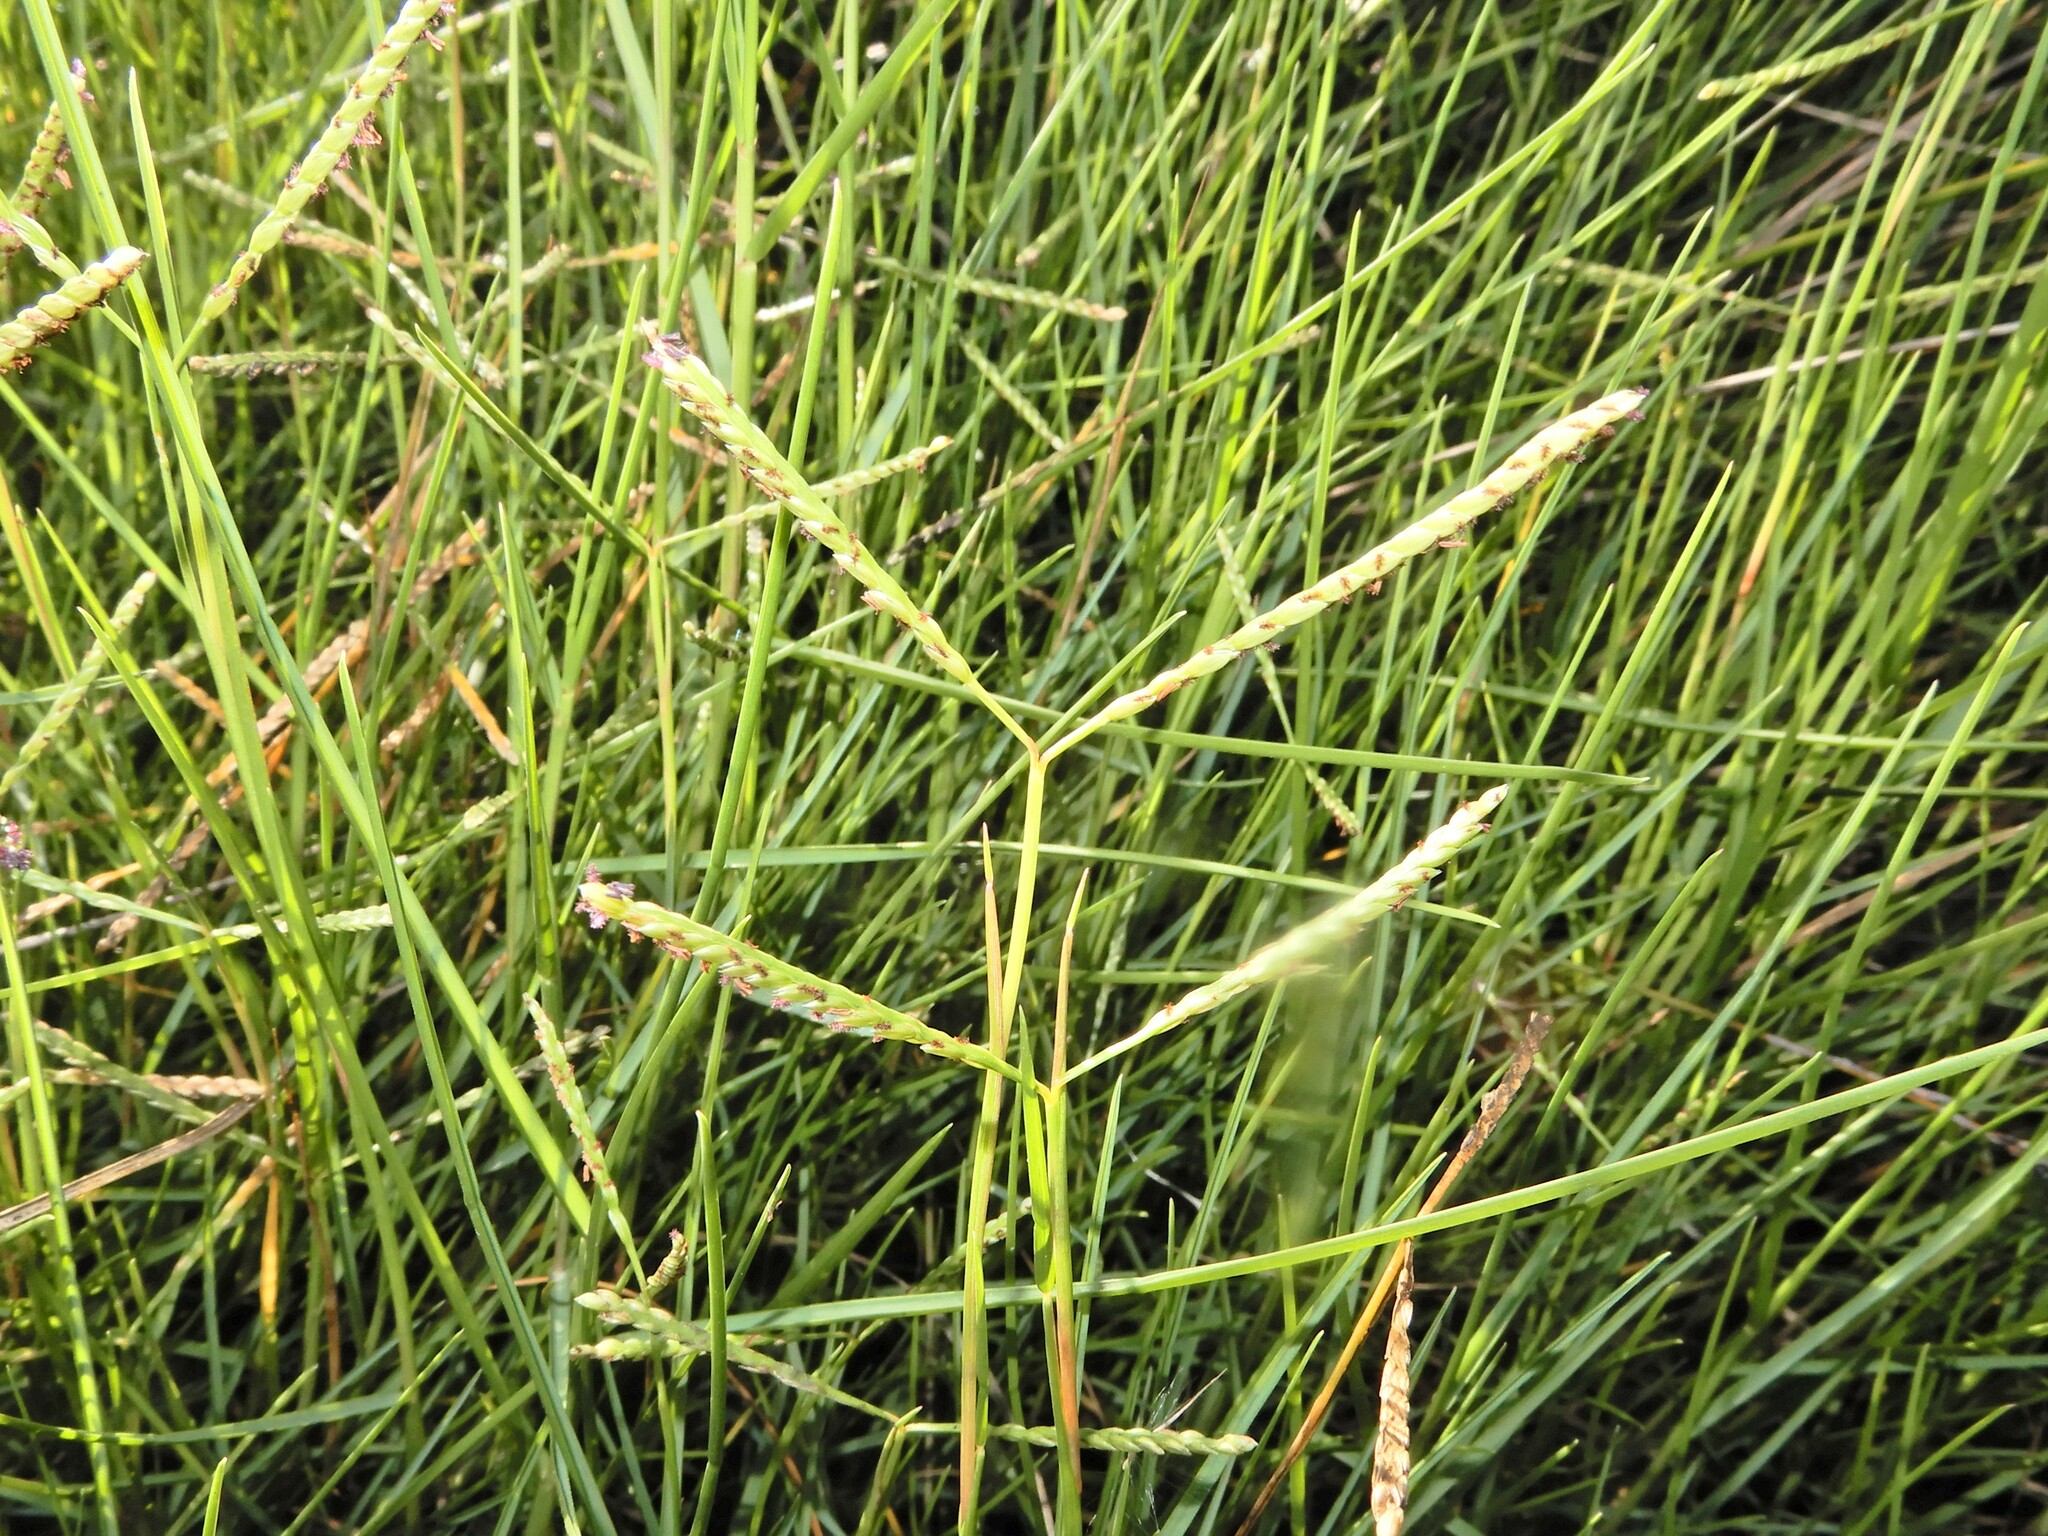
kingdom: Plantae
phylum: Tracheophyta
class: Liliopsida
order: Poales
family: Poaceae
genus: Paspalum
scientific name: Paspalum vaginatum
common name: Seashore paspalum
